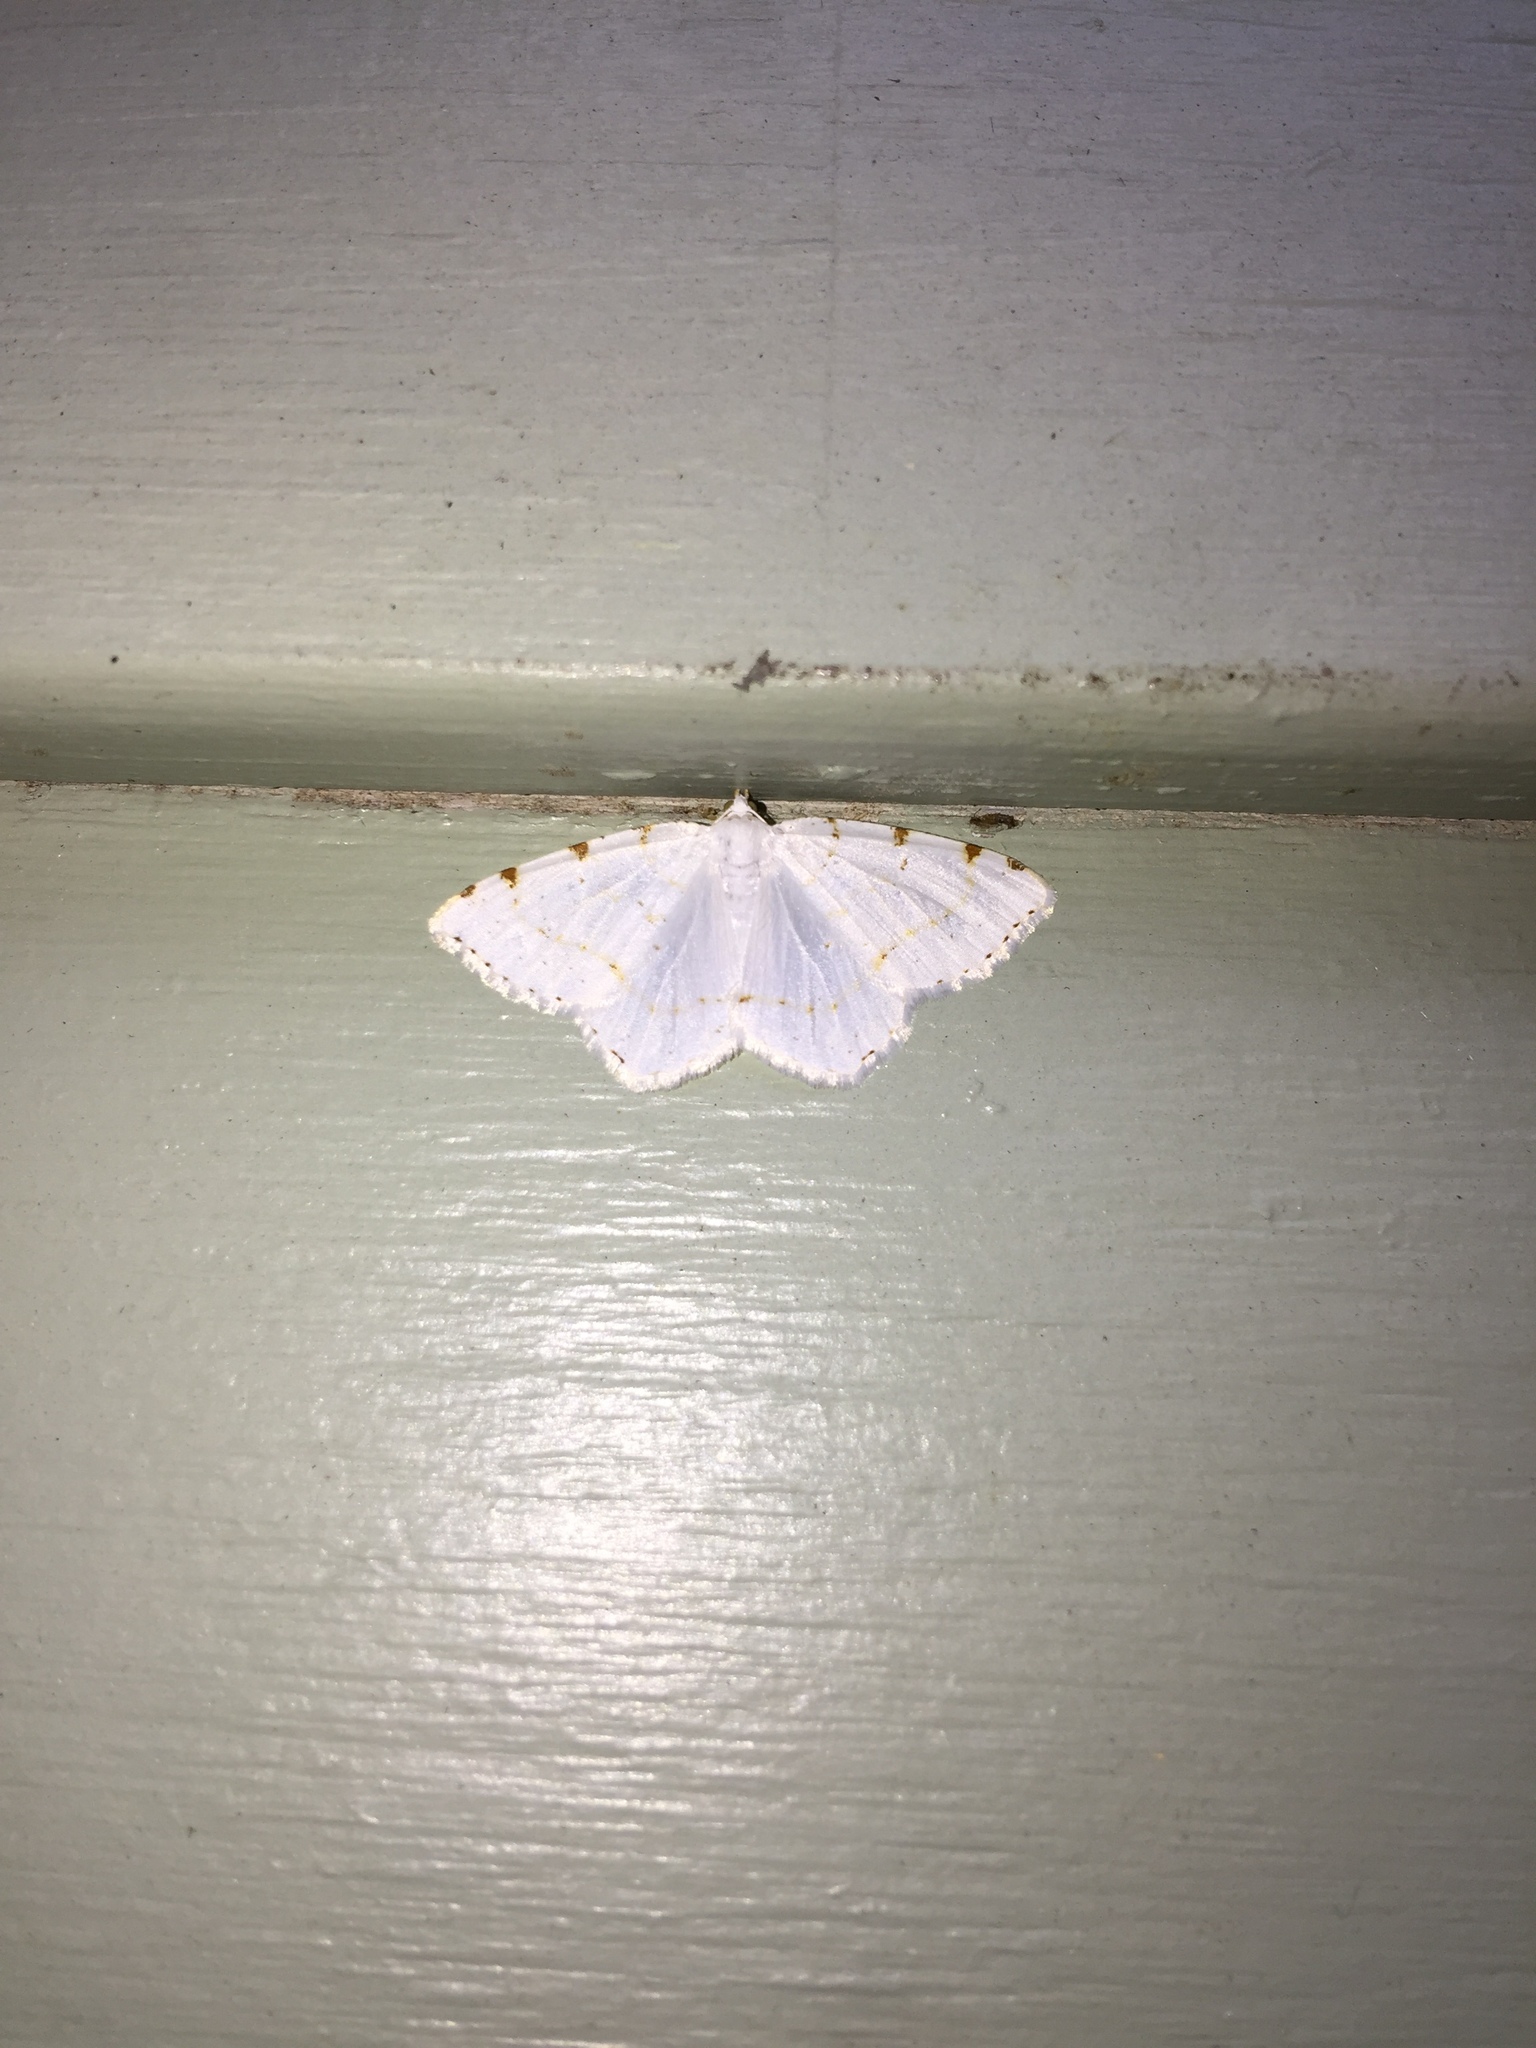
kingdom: Animalia
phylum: Arthropoda
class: Insecta
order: Lepidoptera
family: Geometridae
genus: Macaria
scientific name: Macaria pustularia
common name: Lesser maple spanworm moth
